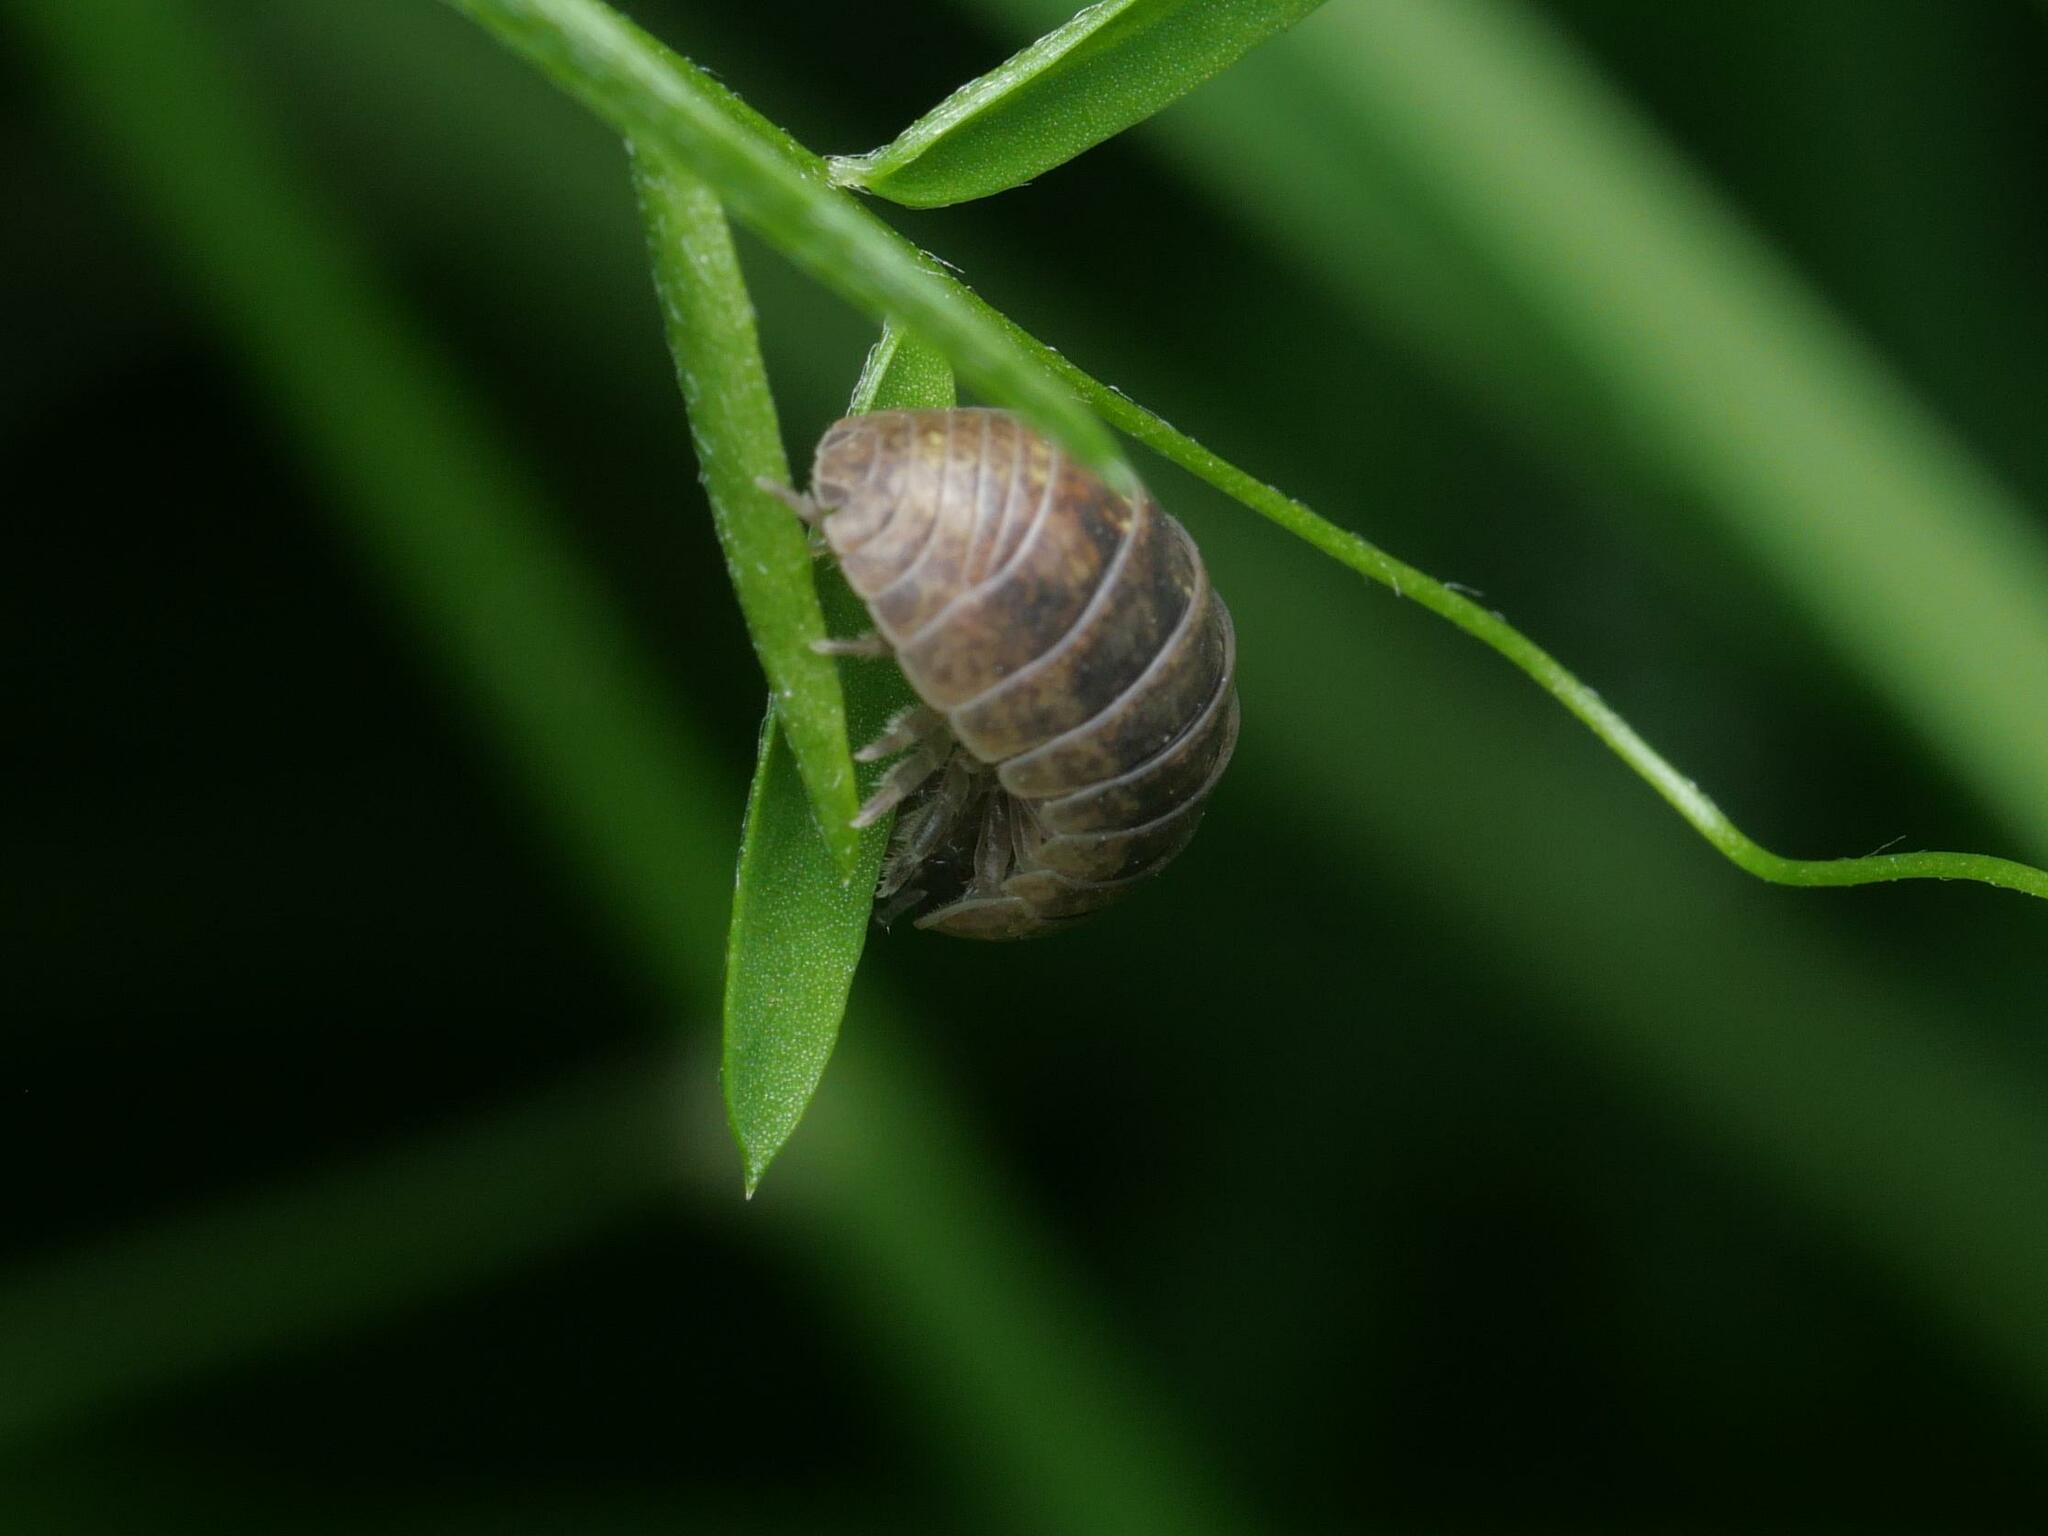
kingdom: Animalia
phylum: Arthropoda
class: Malacostraca
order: Isopoda
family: Armadillidiidae
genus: Armadillidium
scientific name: Armadillidium vulgare
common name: Common pill woodlouse
